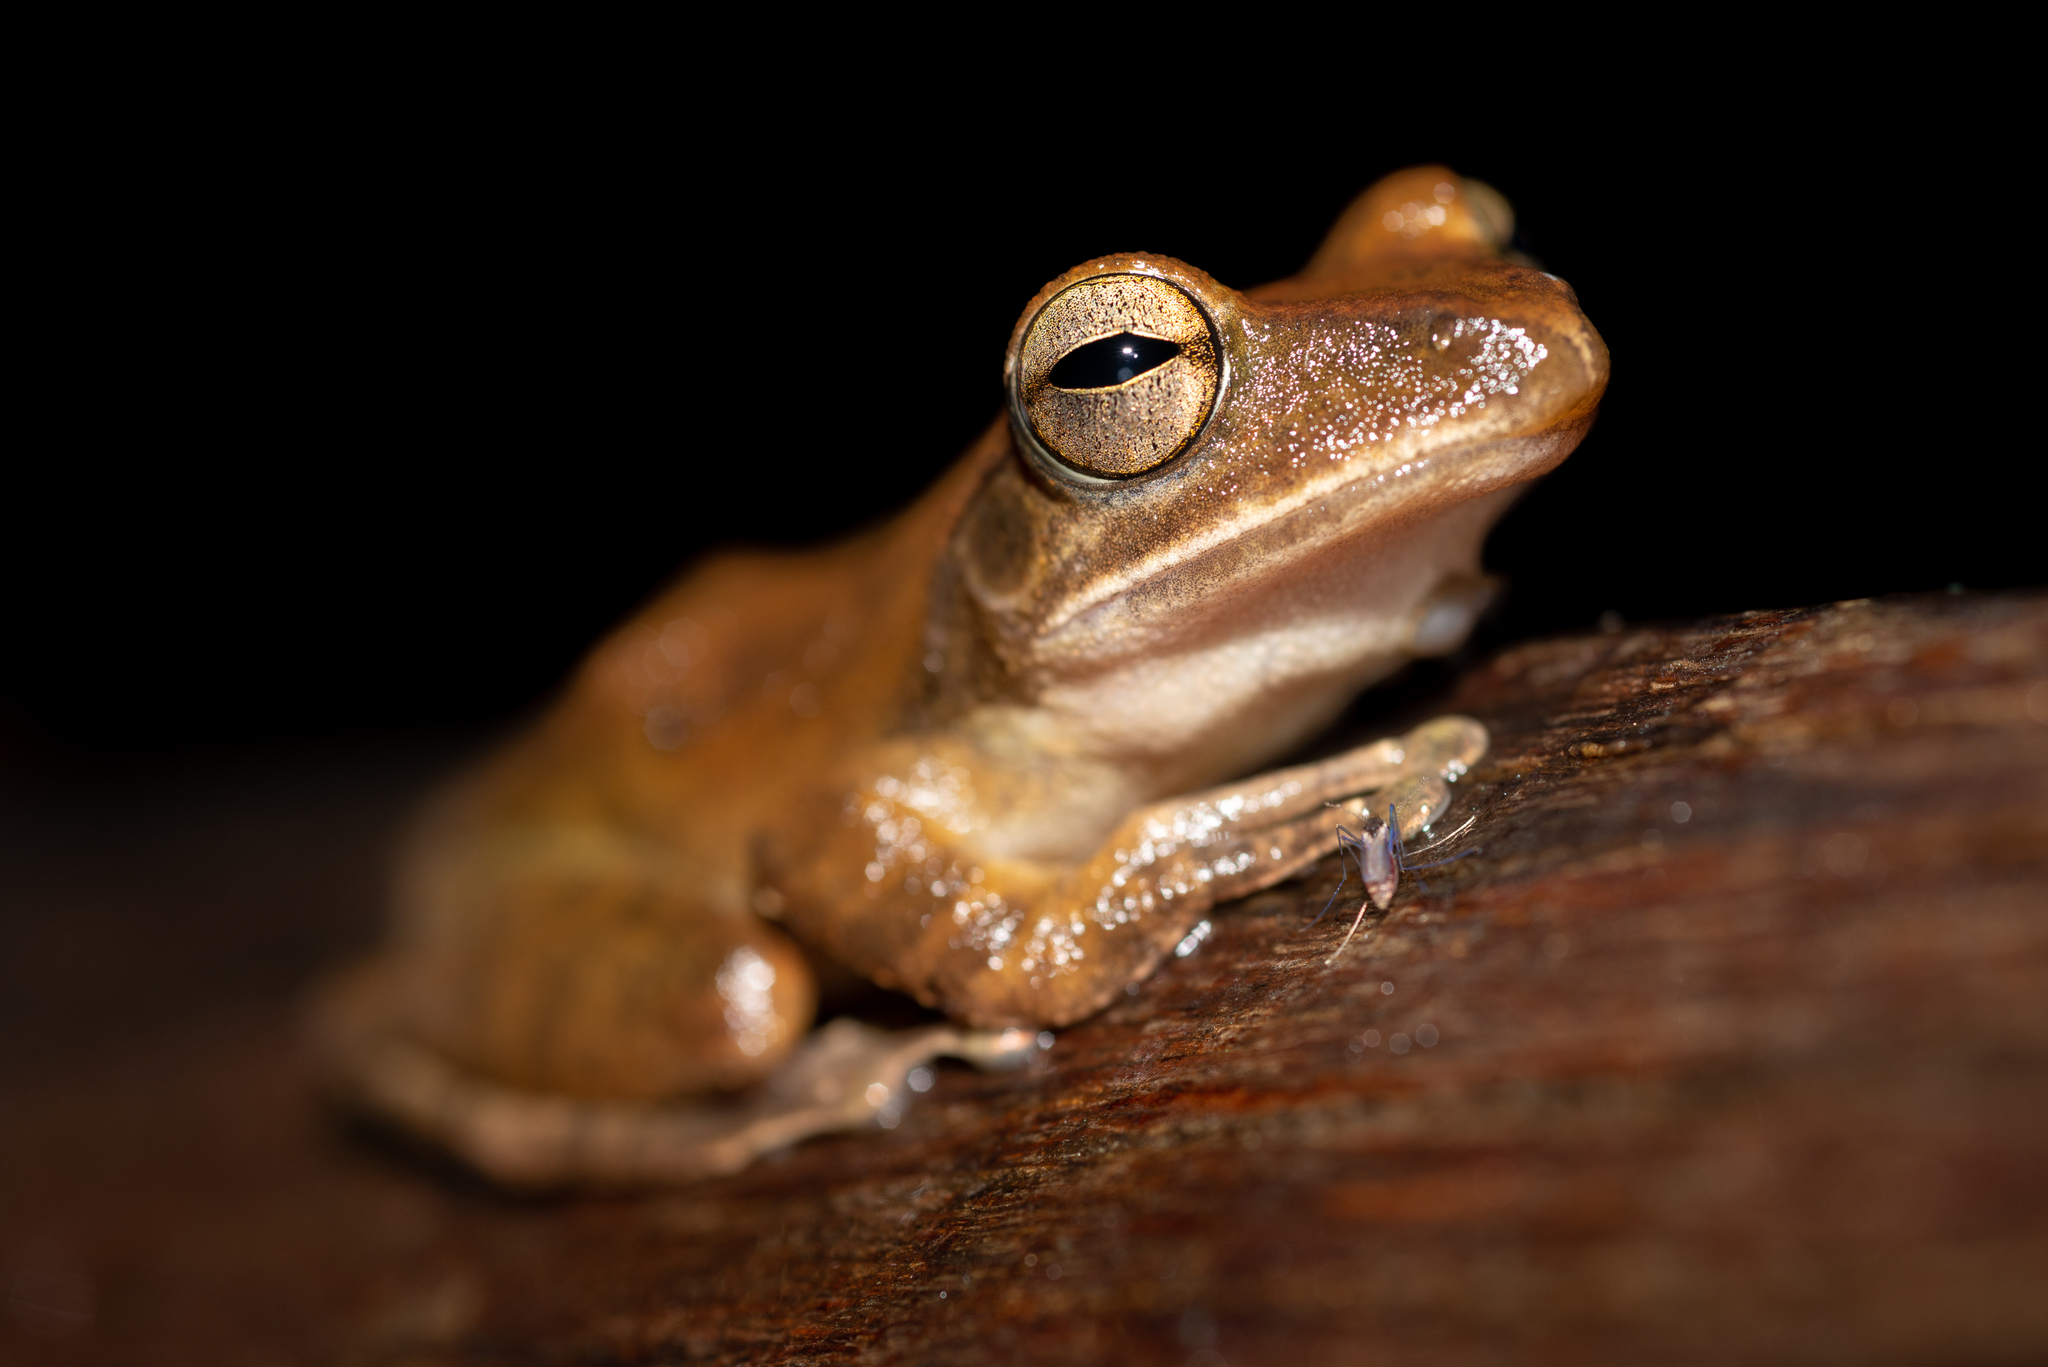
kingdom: Animalia
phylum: Chordata
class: Amphibia
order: Anura
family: Rhacophoridae
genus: Polypedates
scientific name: Polypedates megacephalus
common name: Hong kong whipping frog
